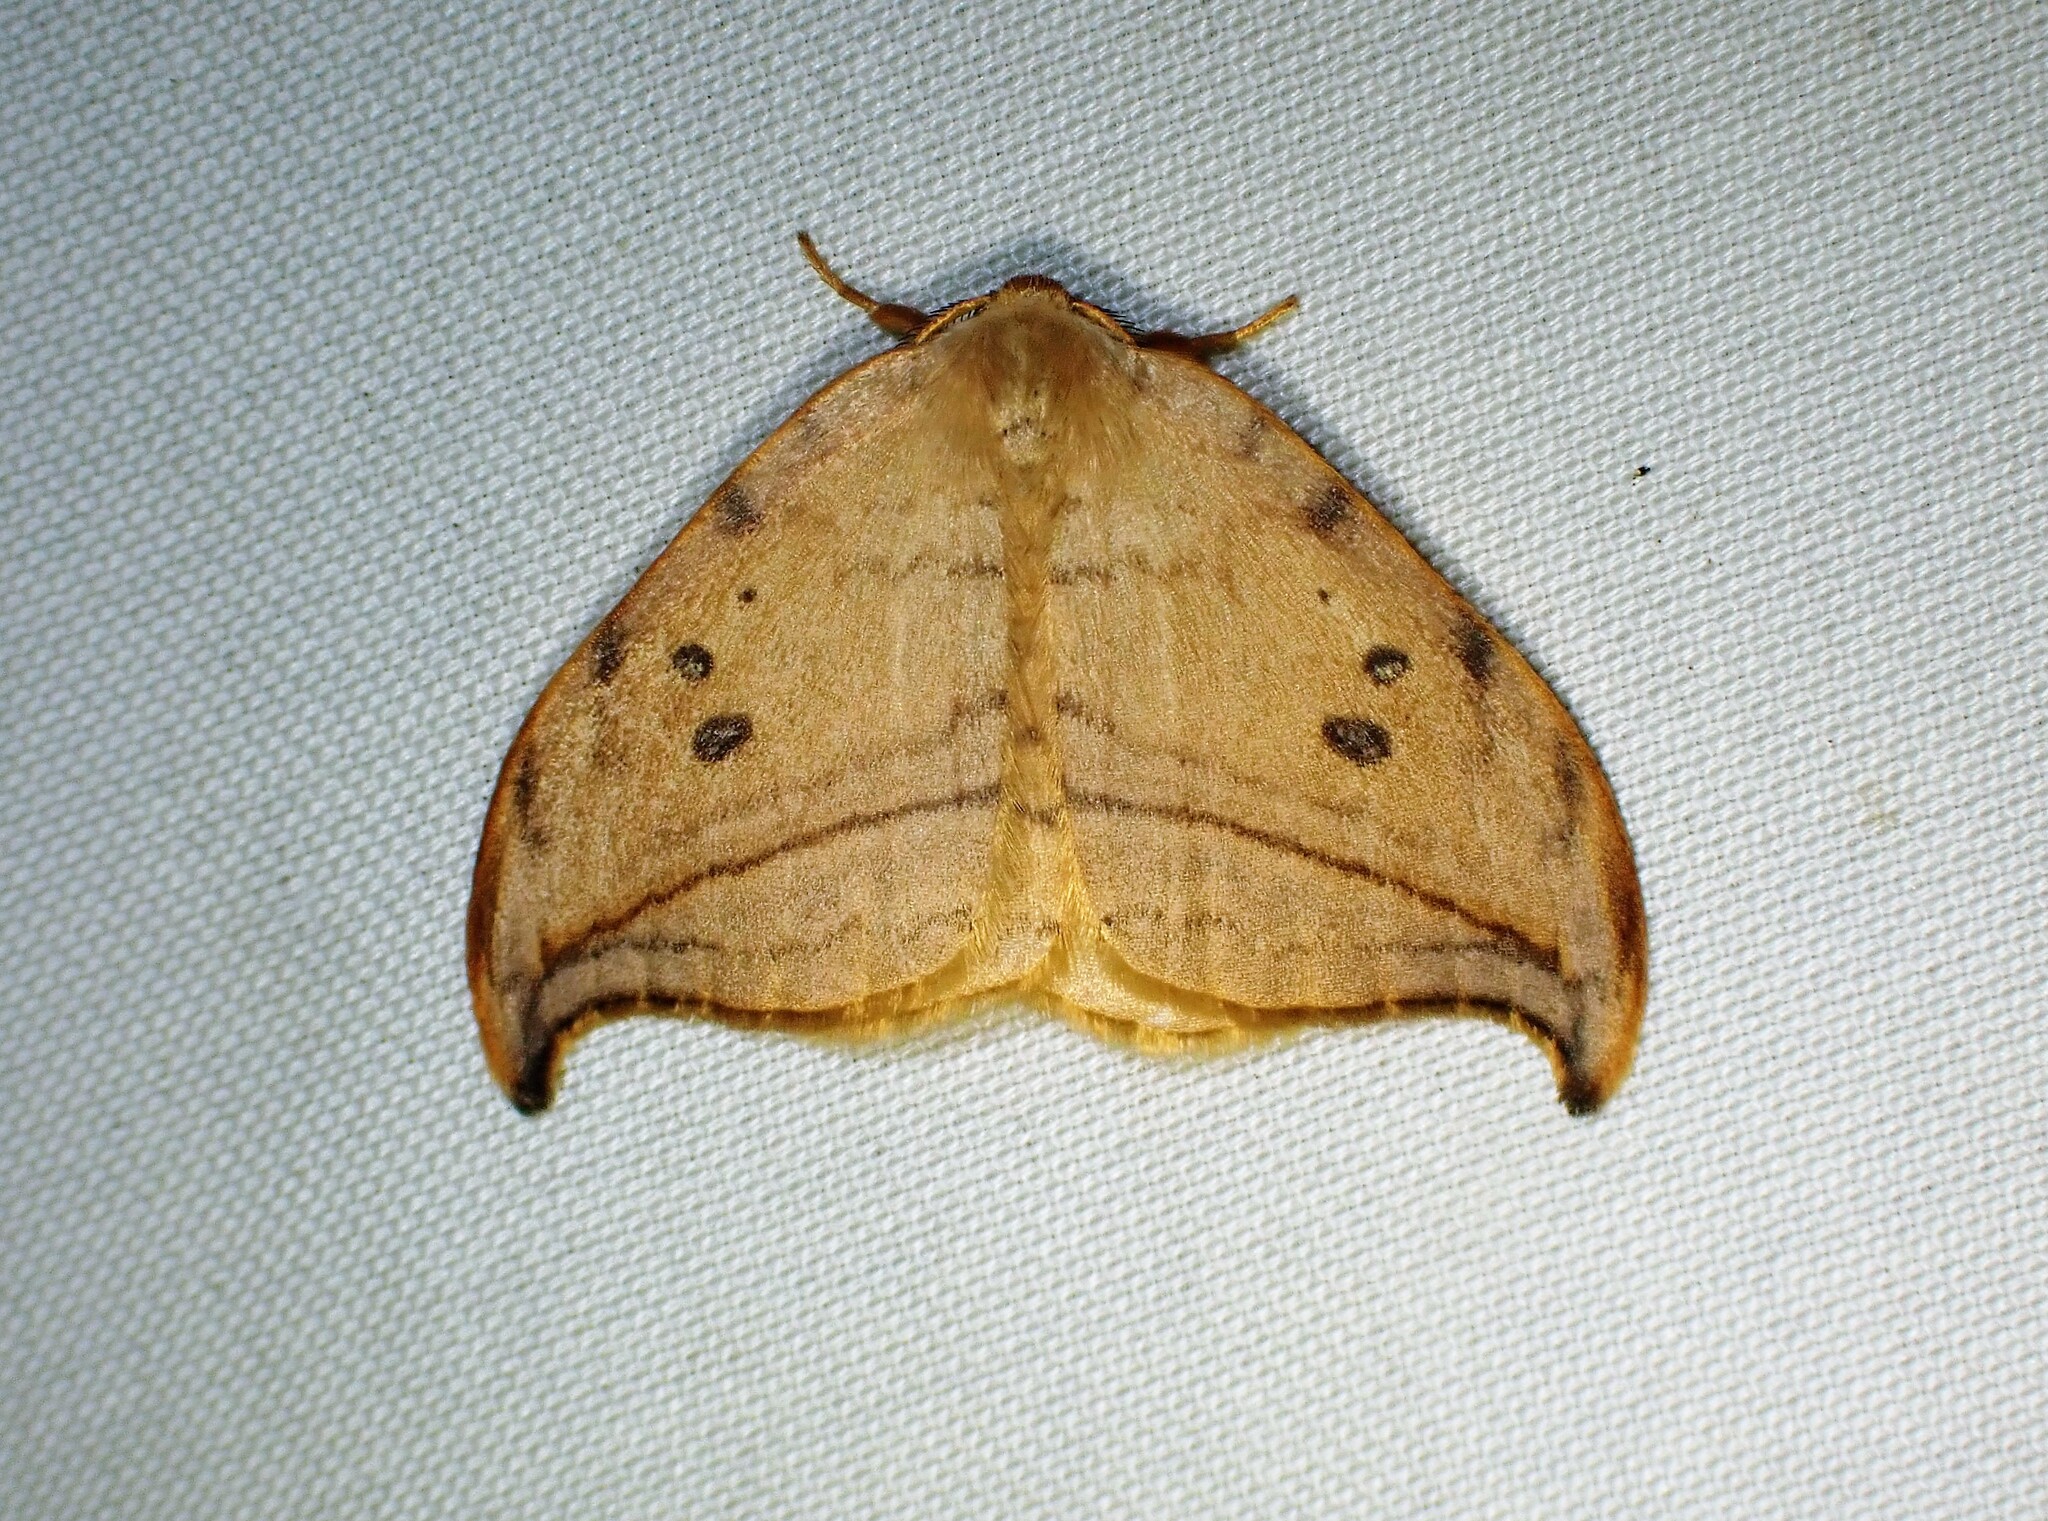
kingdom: Animalia
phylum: Arthropoda
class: Insecta
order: Lepidoptera
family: Drepanidae
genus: Drepana
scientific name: Drepana arcuata
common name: Arched hooktip moth
